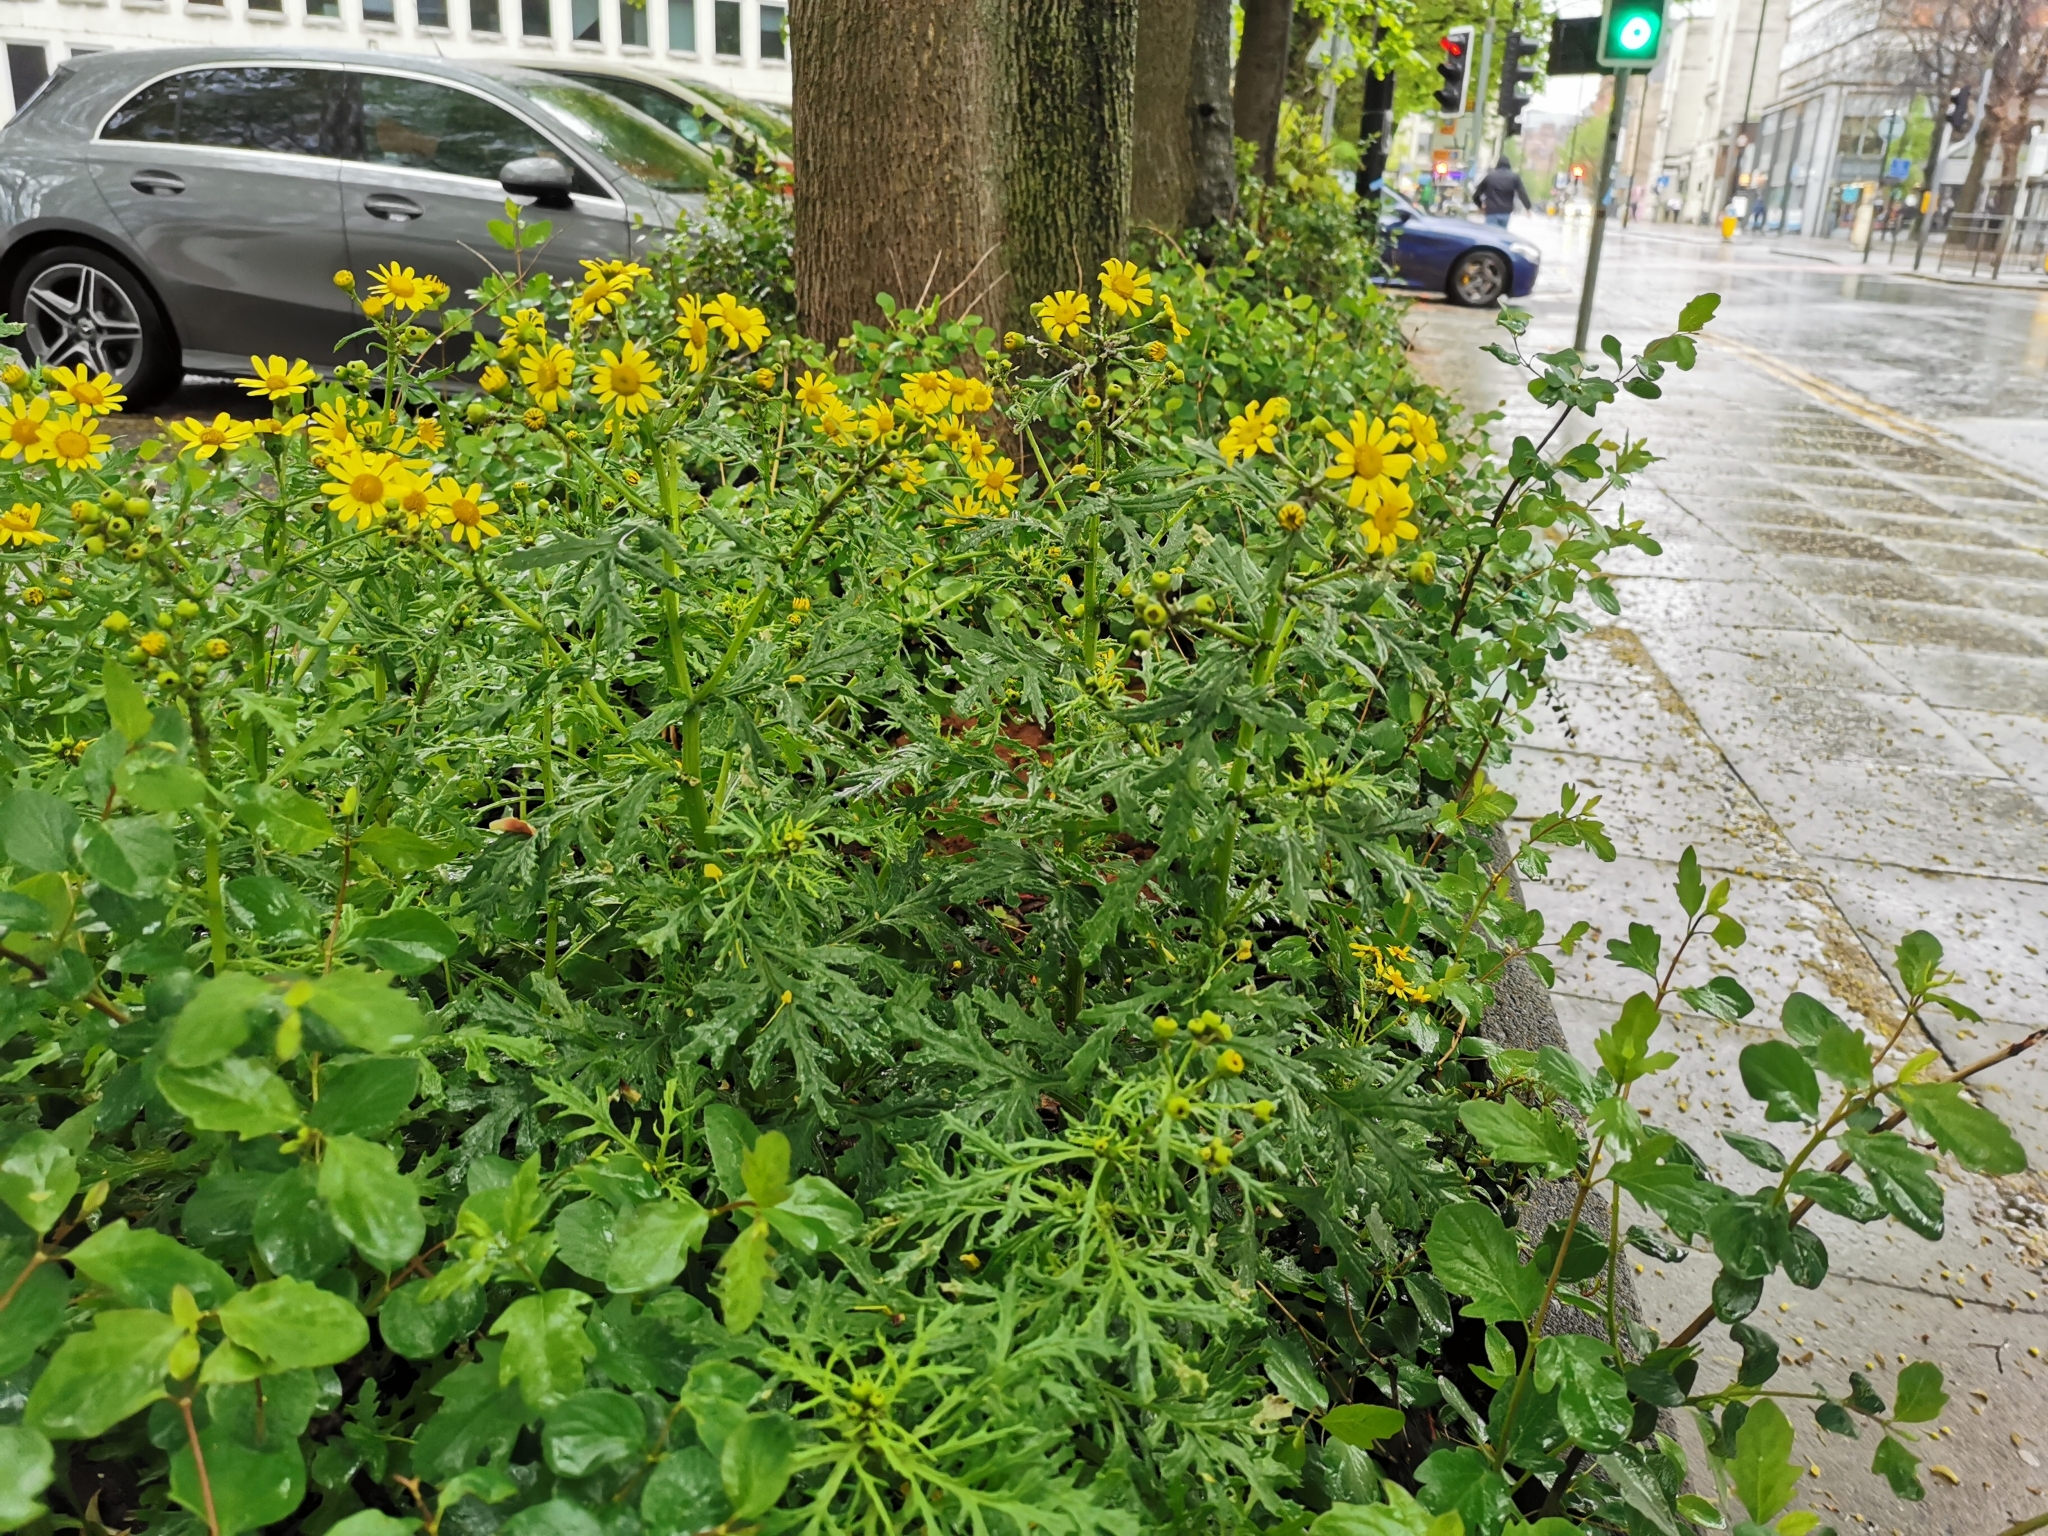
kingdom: Plantae
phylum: Tracheophyta
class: Magnoliopsida
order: Asterales
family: Asteraceae
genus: Senecio
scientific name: Senecio squalidus
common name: Oxford ragwort
